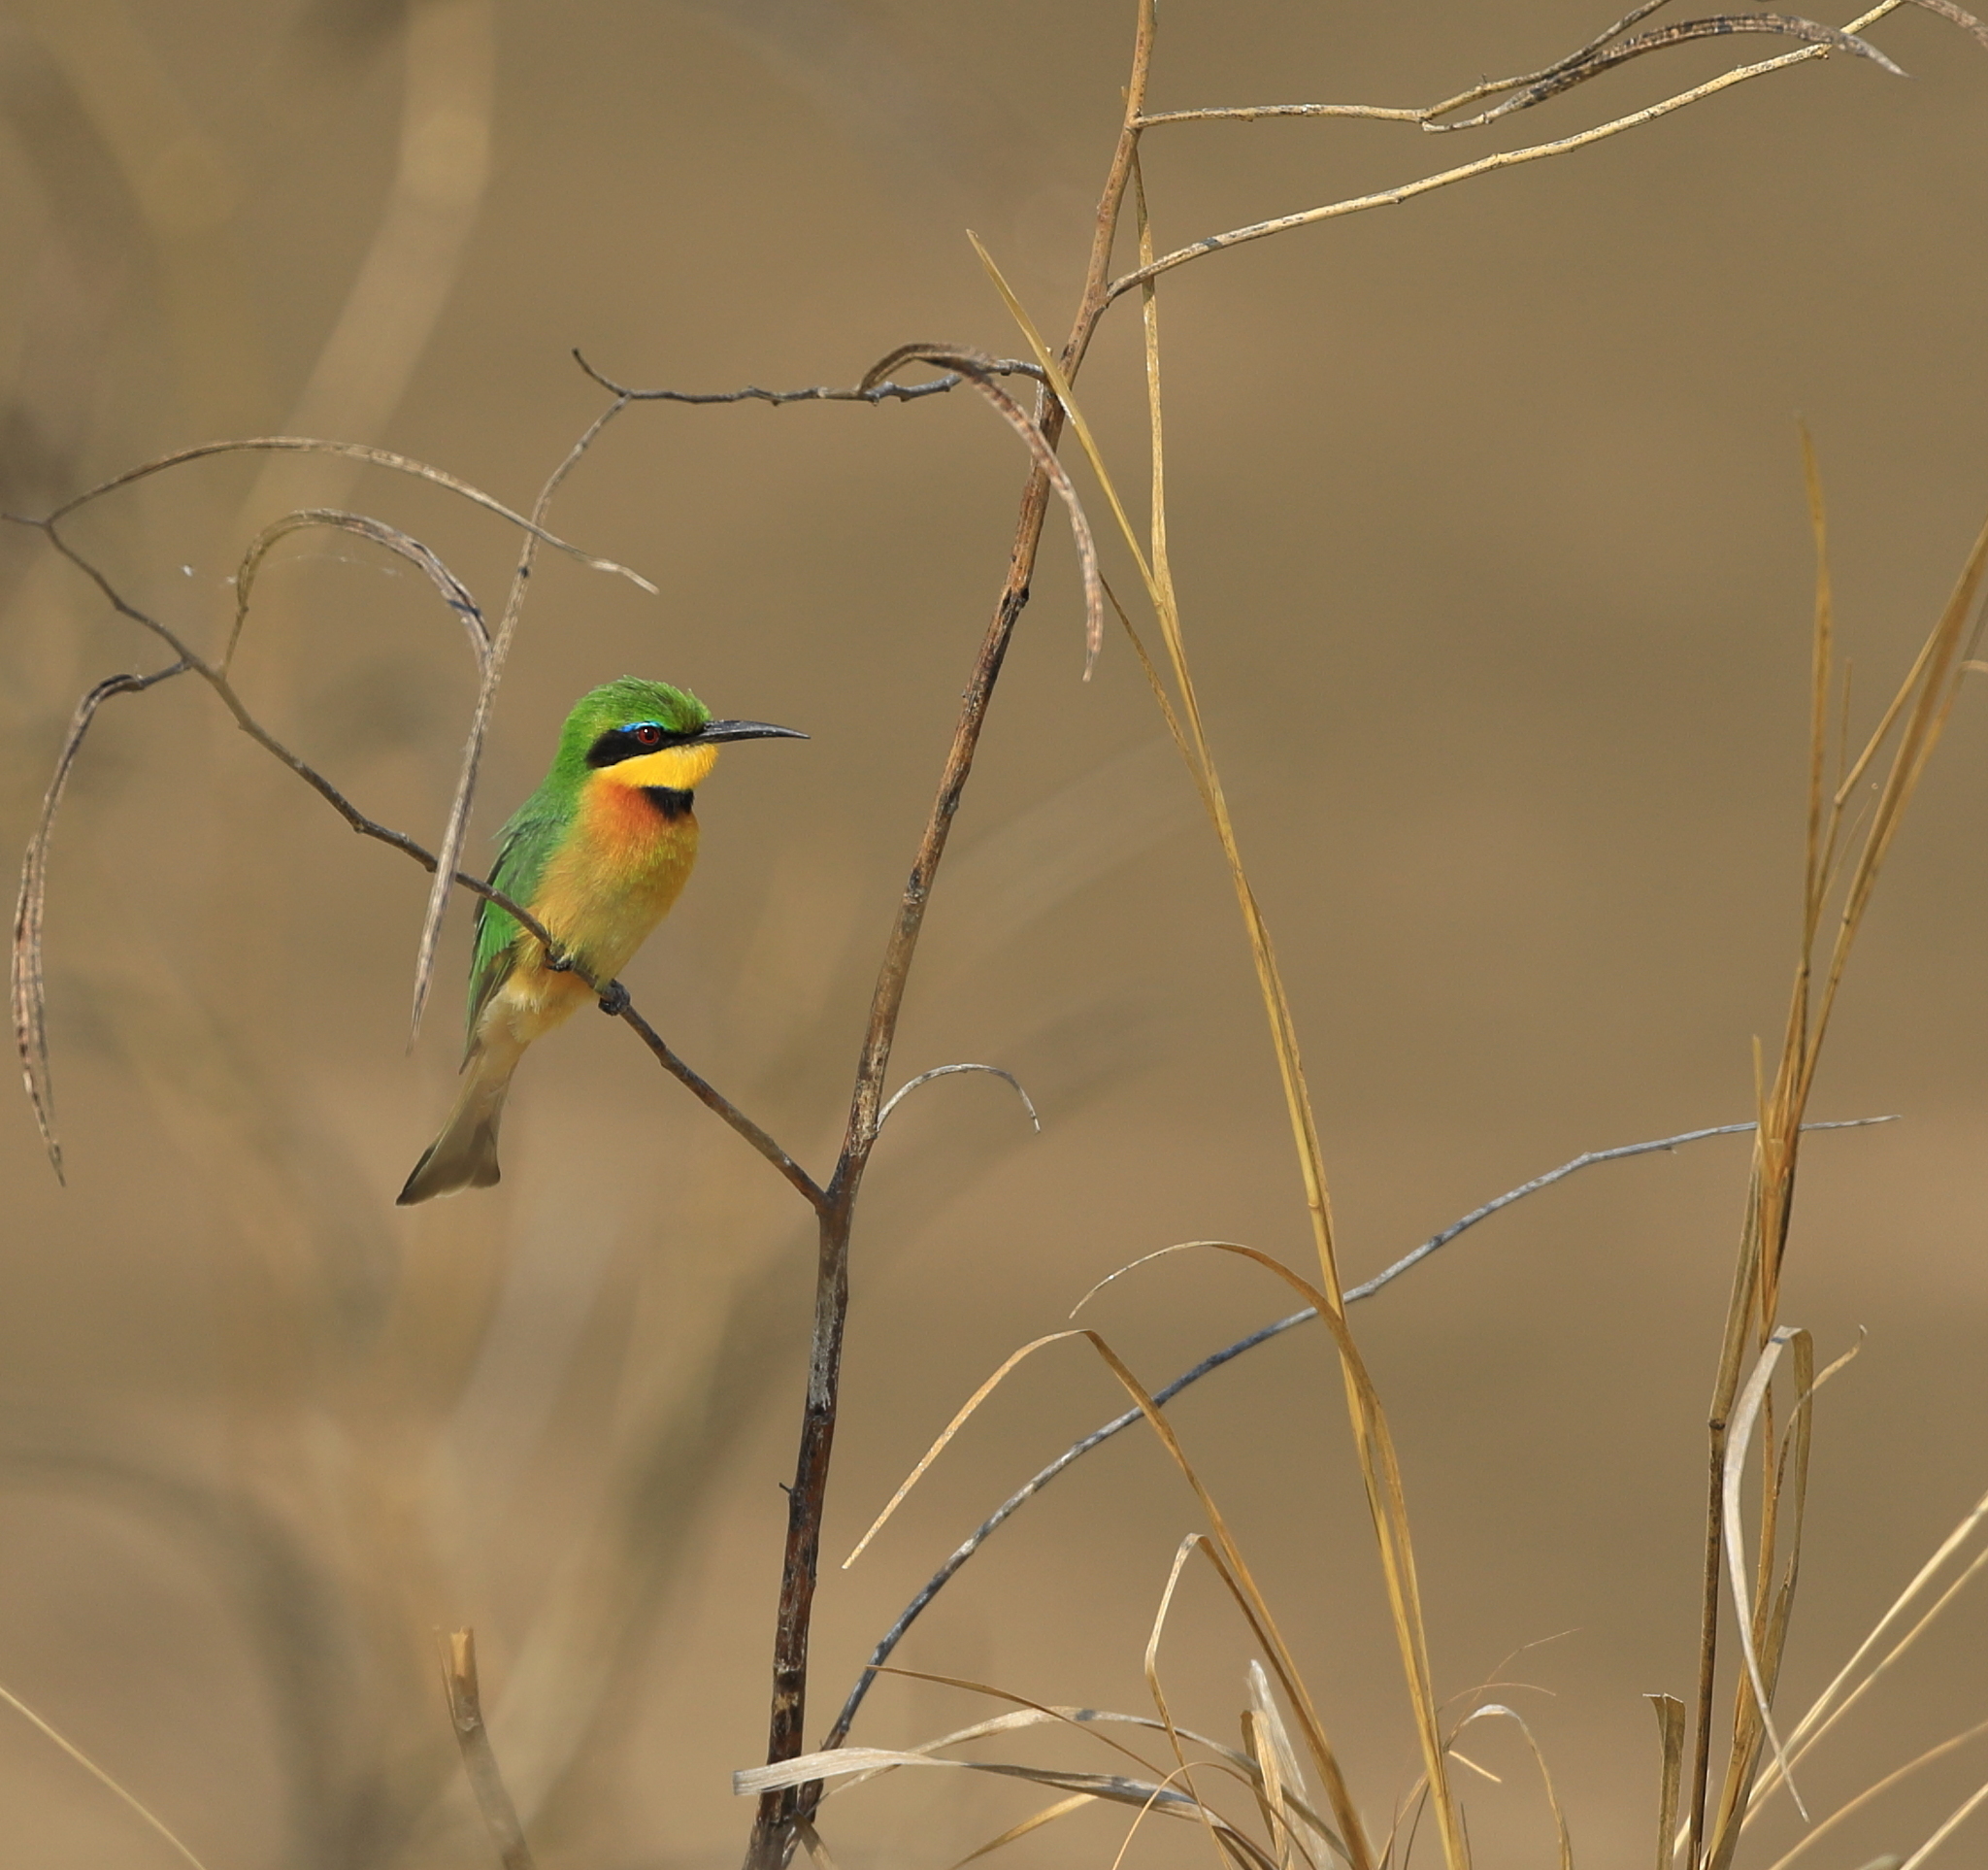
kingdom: Animalia
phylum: Chordata
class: Aves
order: Coraciiformes
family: Meropidae
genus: Merops
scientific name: Merops pusillus
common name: Little bee-eater
